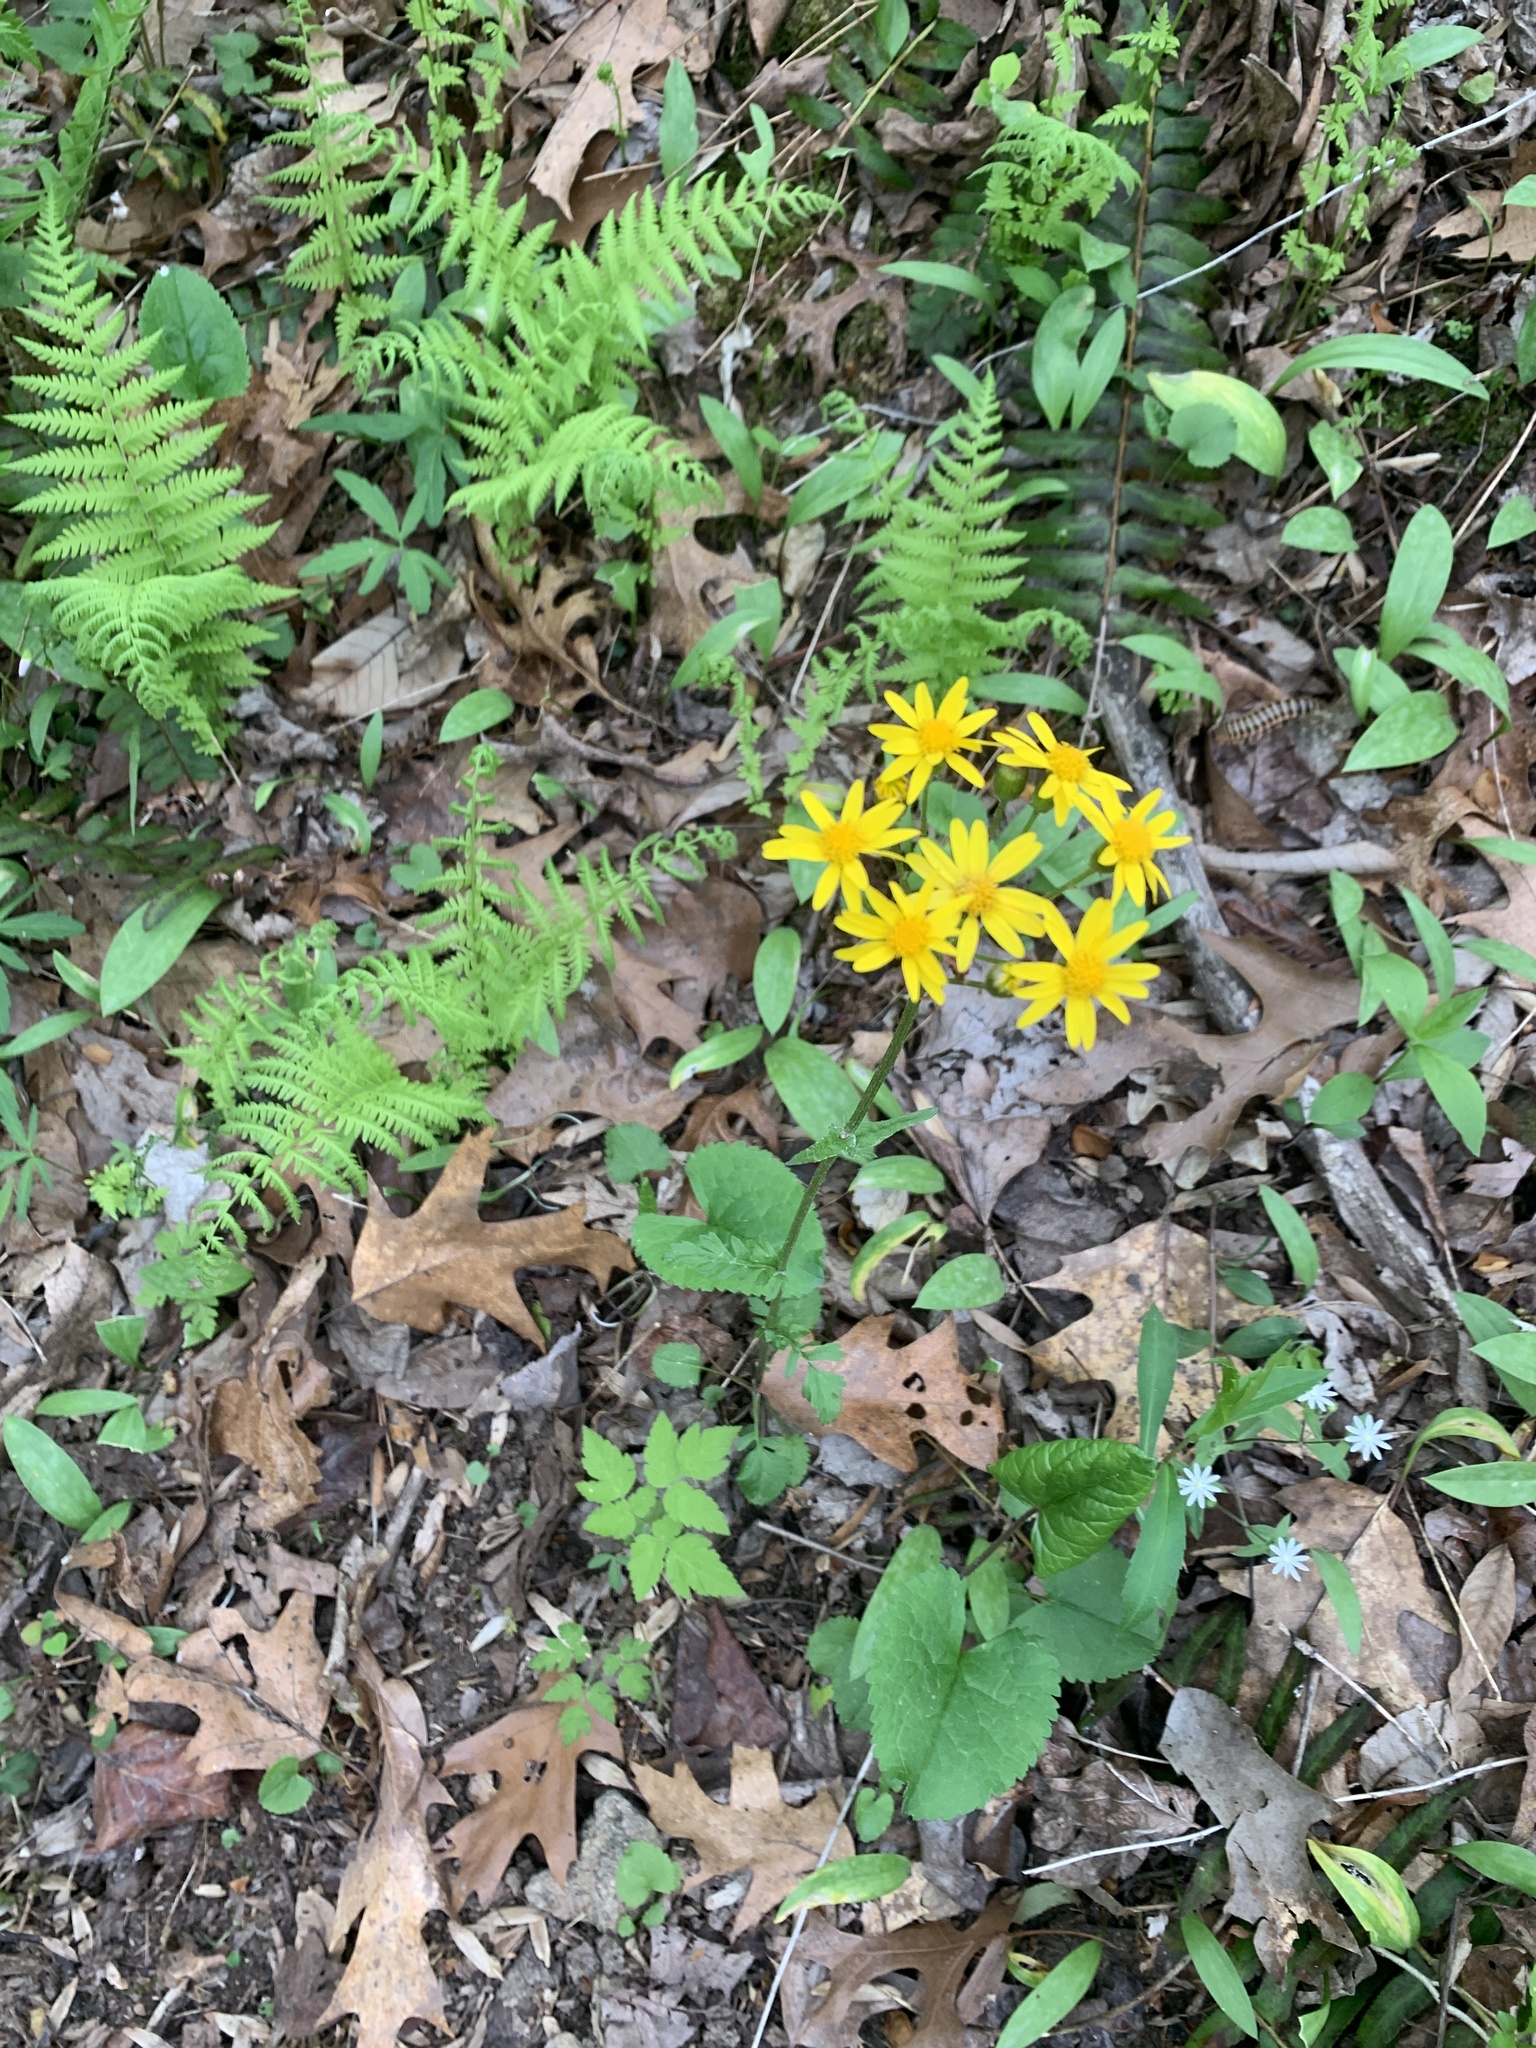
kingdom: Plantae
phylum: Tracheophyta
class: Magnoliopsida
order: Asterales
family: Asteraceae
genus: Packera
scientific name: Packera aurea
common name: Golden groundsel
